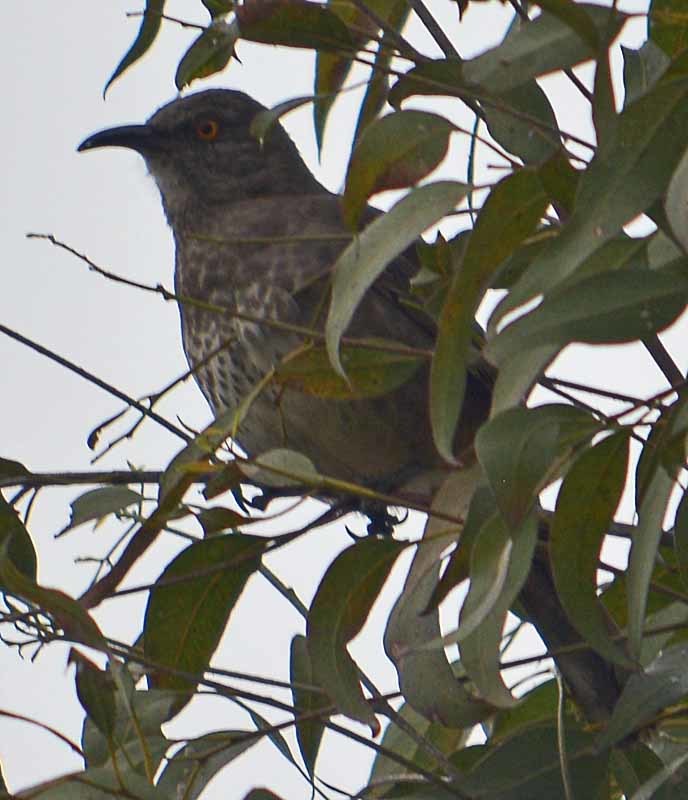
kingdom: Animalia
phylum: Chordata
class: Aves
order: Passeriformes
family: Mimidae
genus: Toxostoma
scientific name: Toxostoma curvirostre
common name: Curve-billed thrasher
